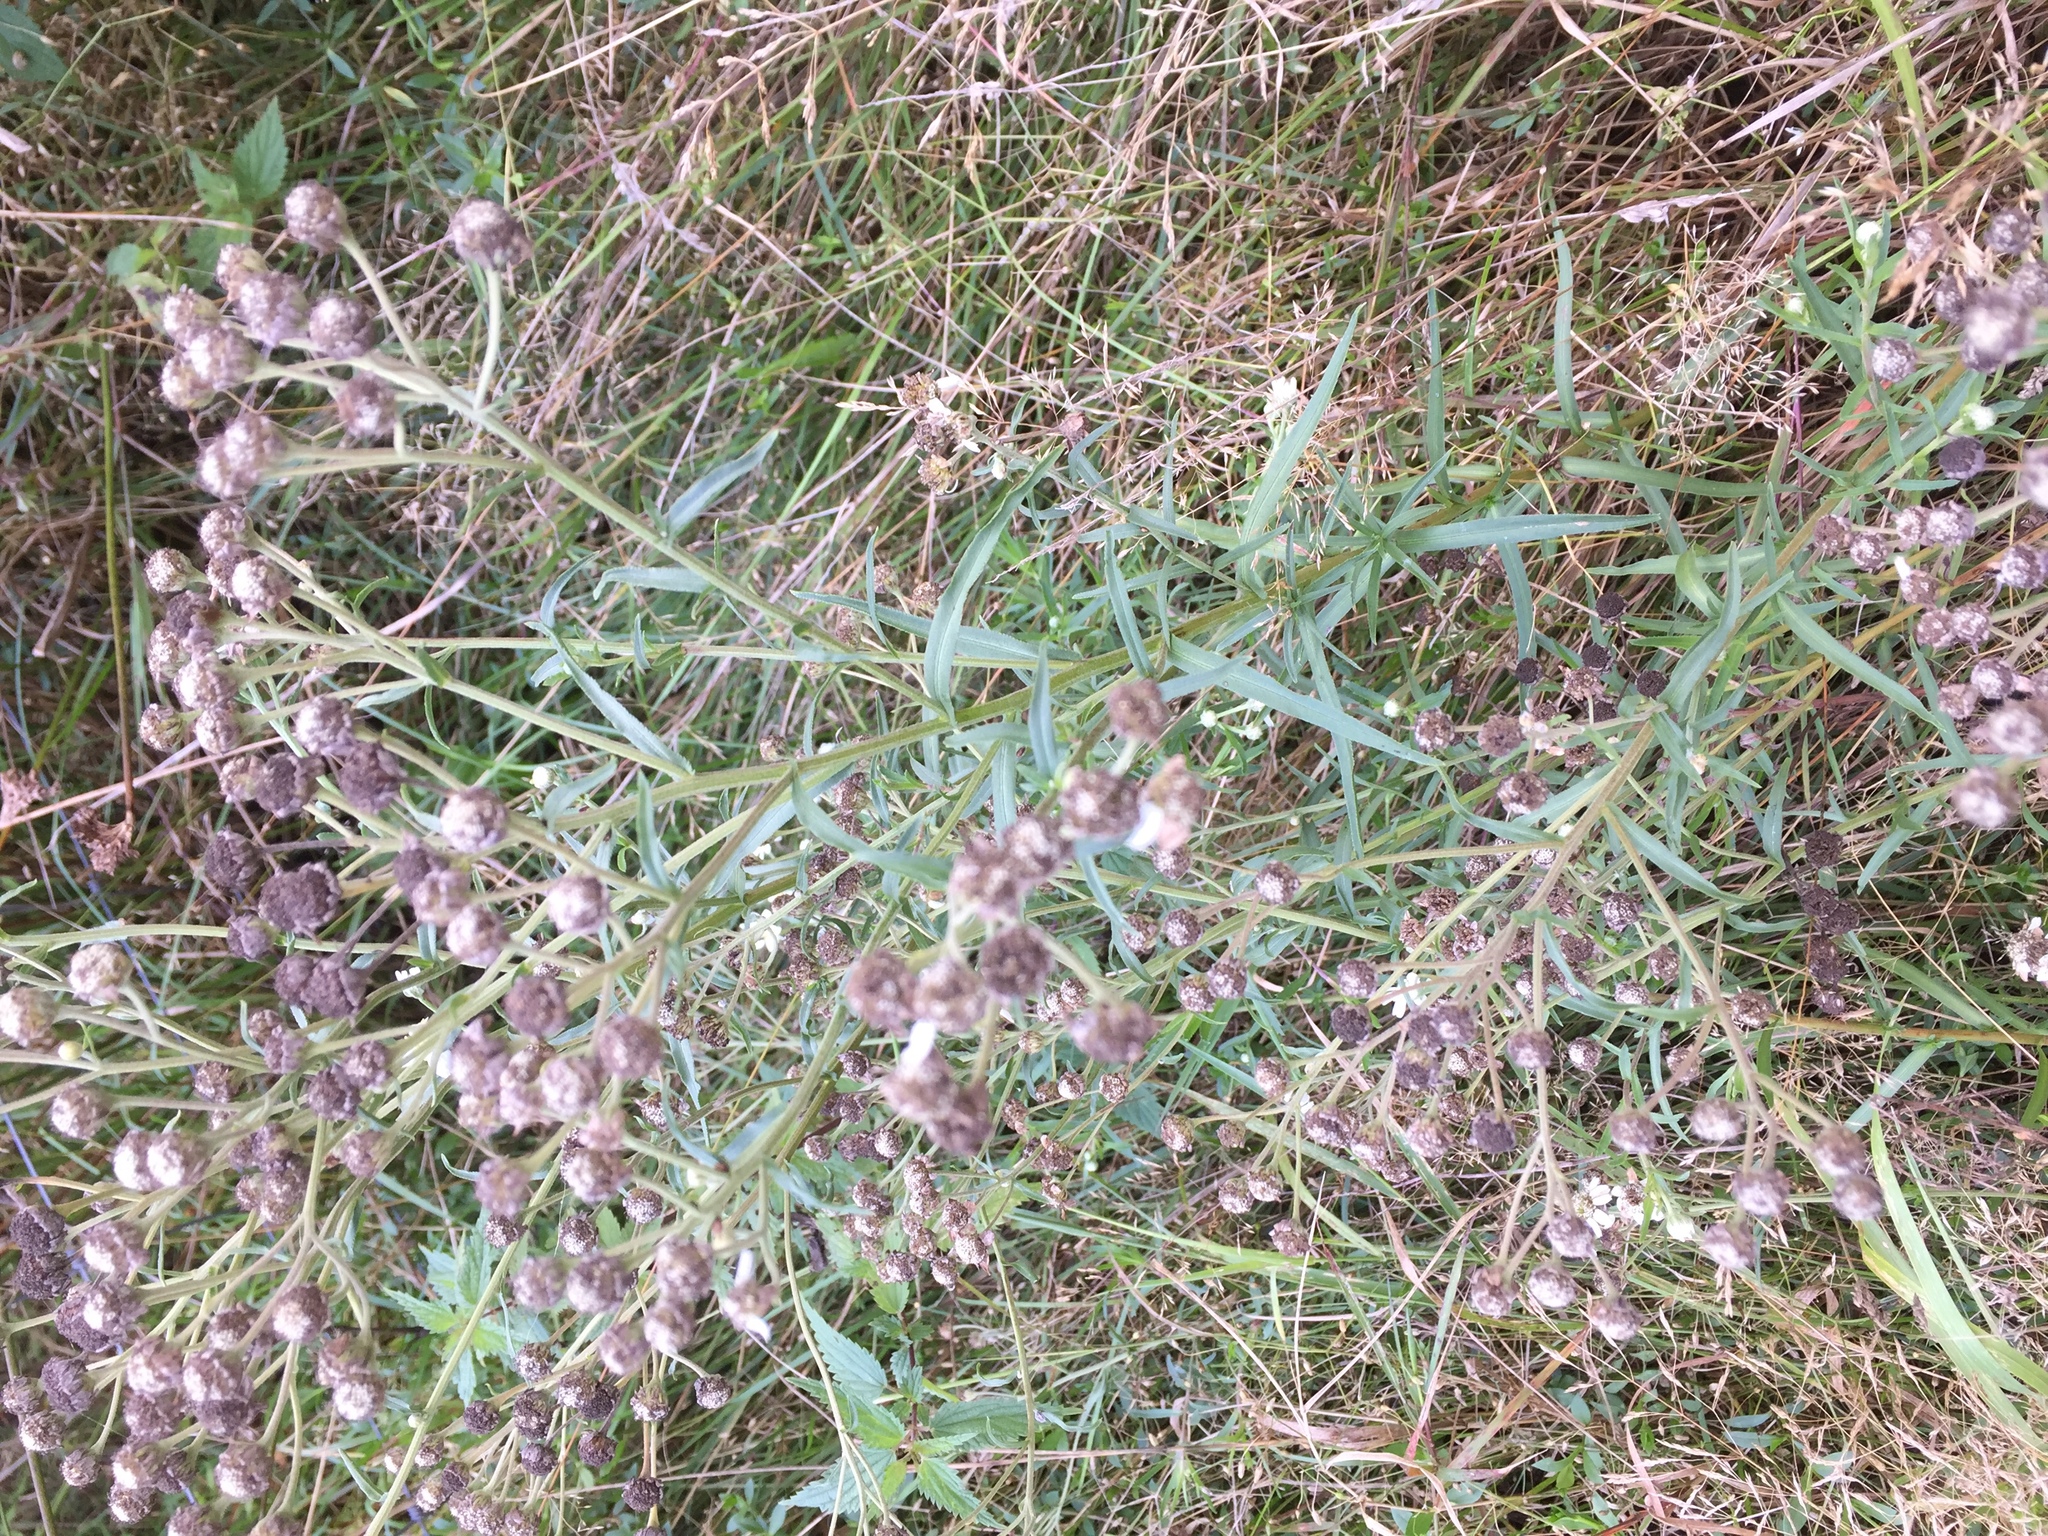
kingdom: Plantae
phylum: Tracheophyta
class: Magnoliopsida
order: Asterales
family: Asteraceae
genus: Achillea
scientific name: Achillea ptarmica
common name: Sneezeweed
